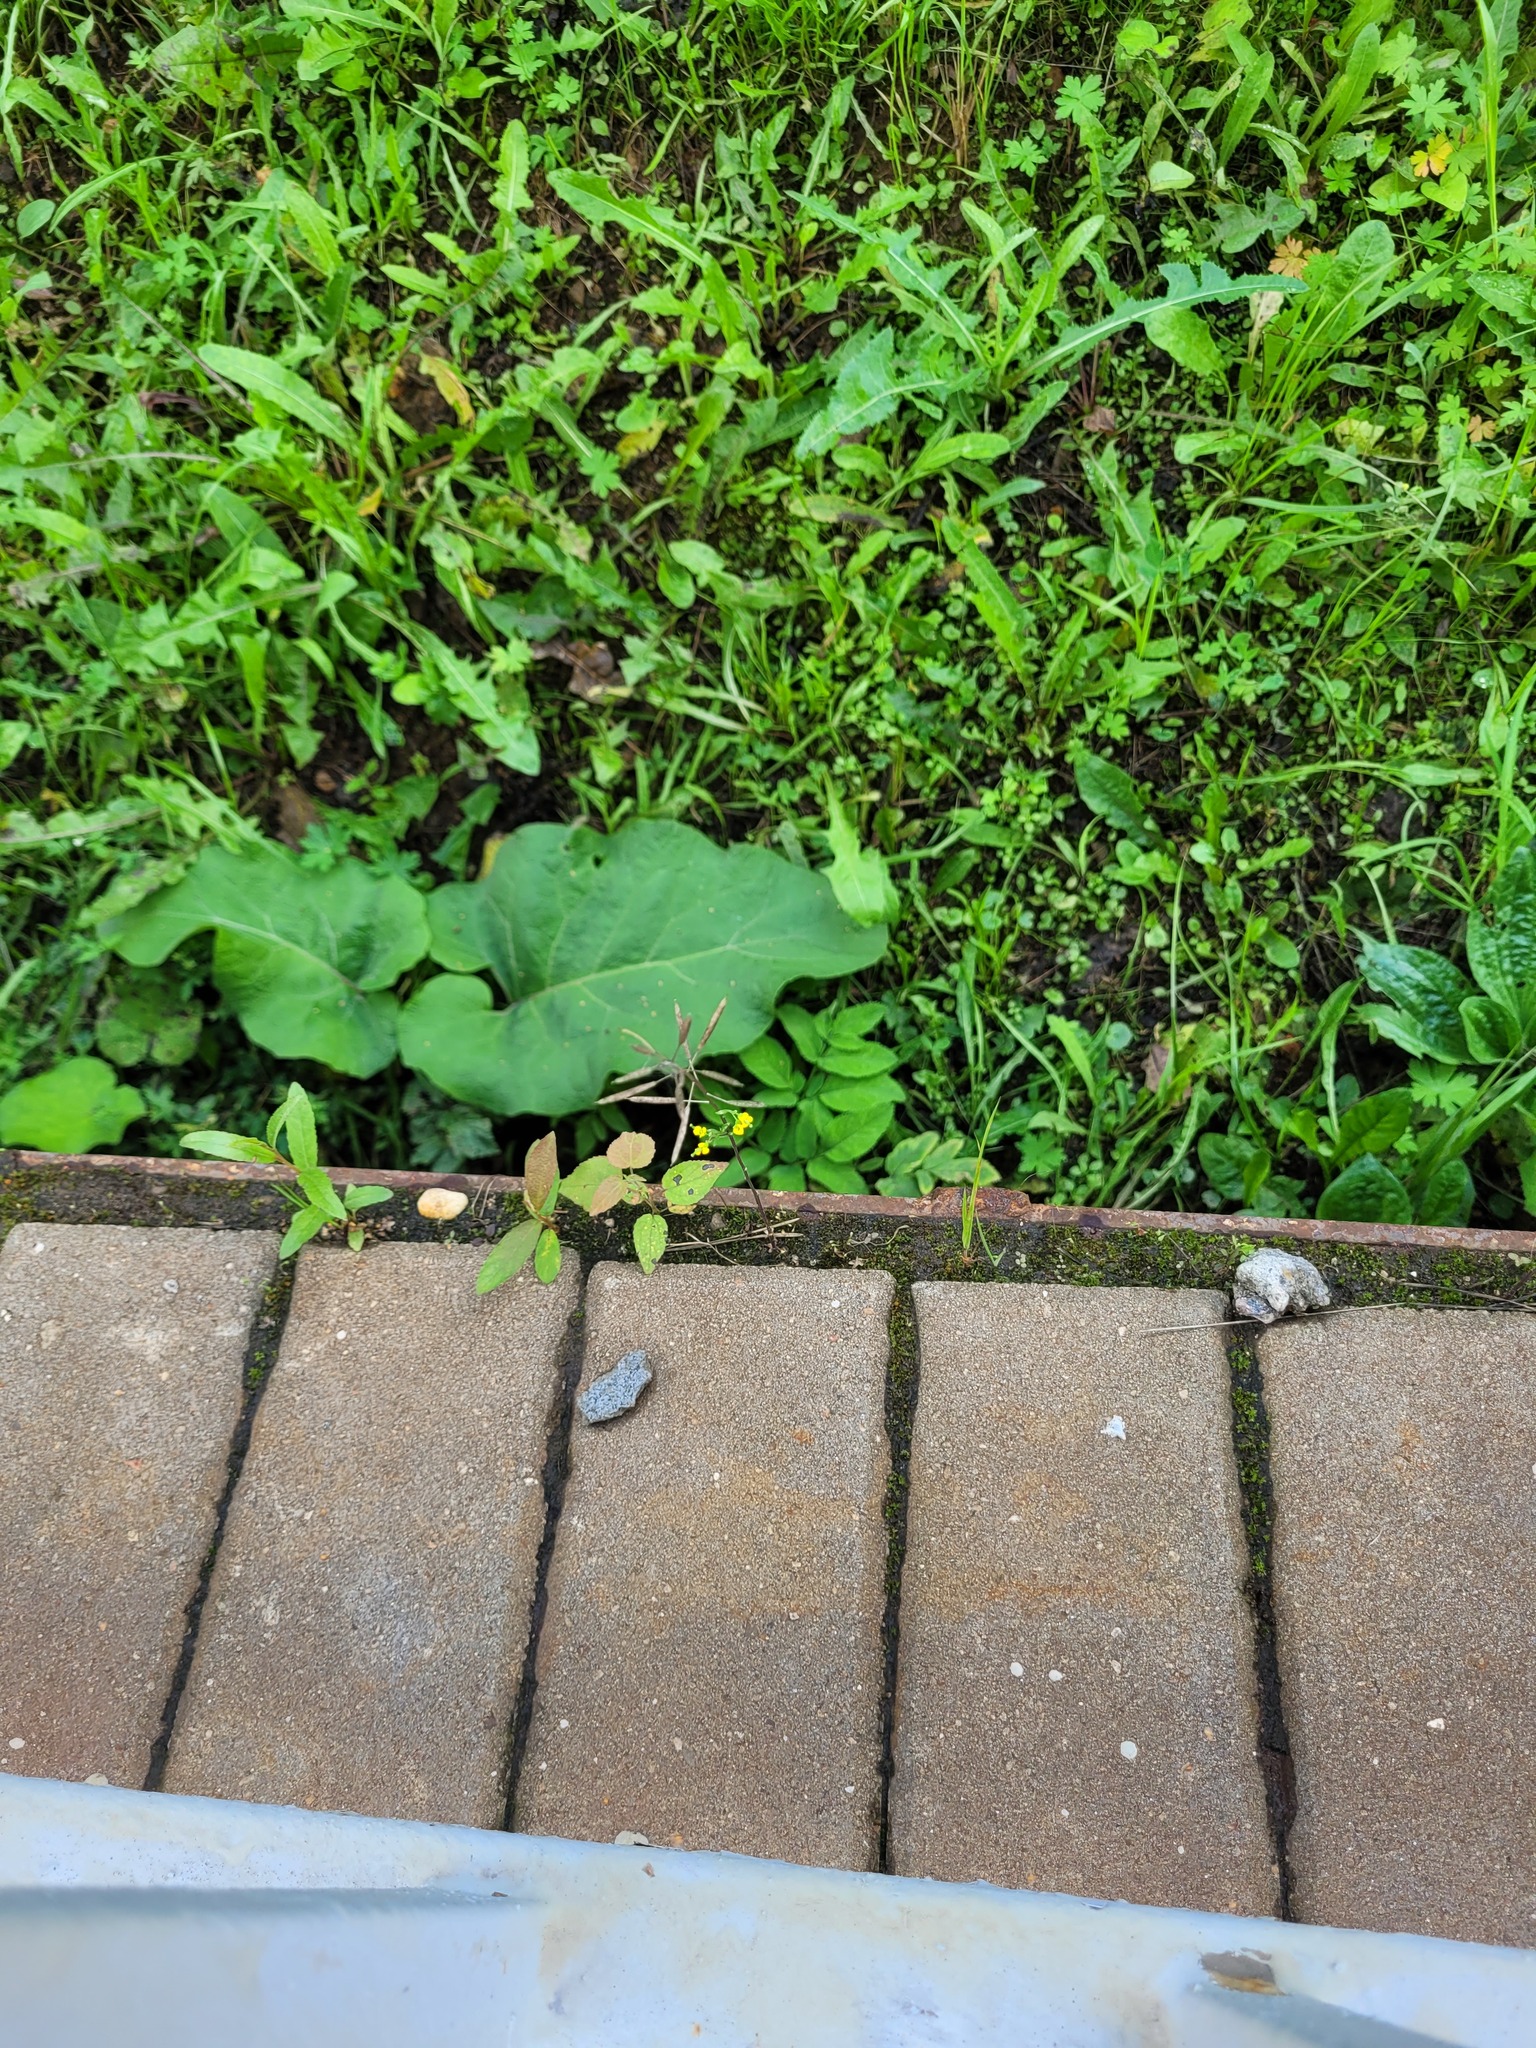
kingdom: Plantae
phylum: Tracheophyta
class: Magnoliopsida
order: Brassicales
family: Brassicaceae
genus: Erysimum
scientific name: Erysimum cheiranthoides
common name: Treacle mustard
